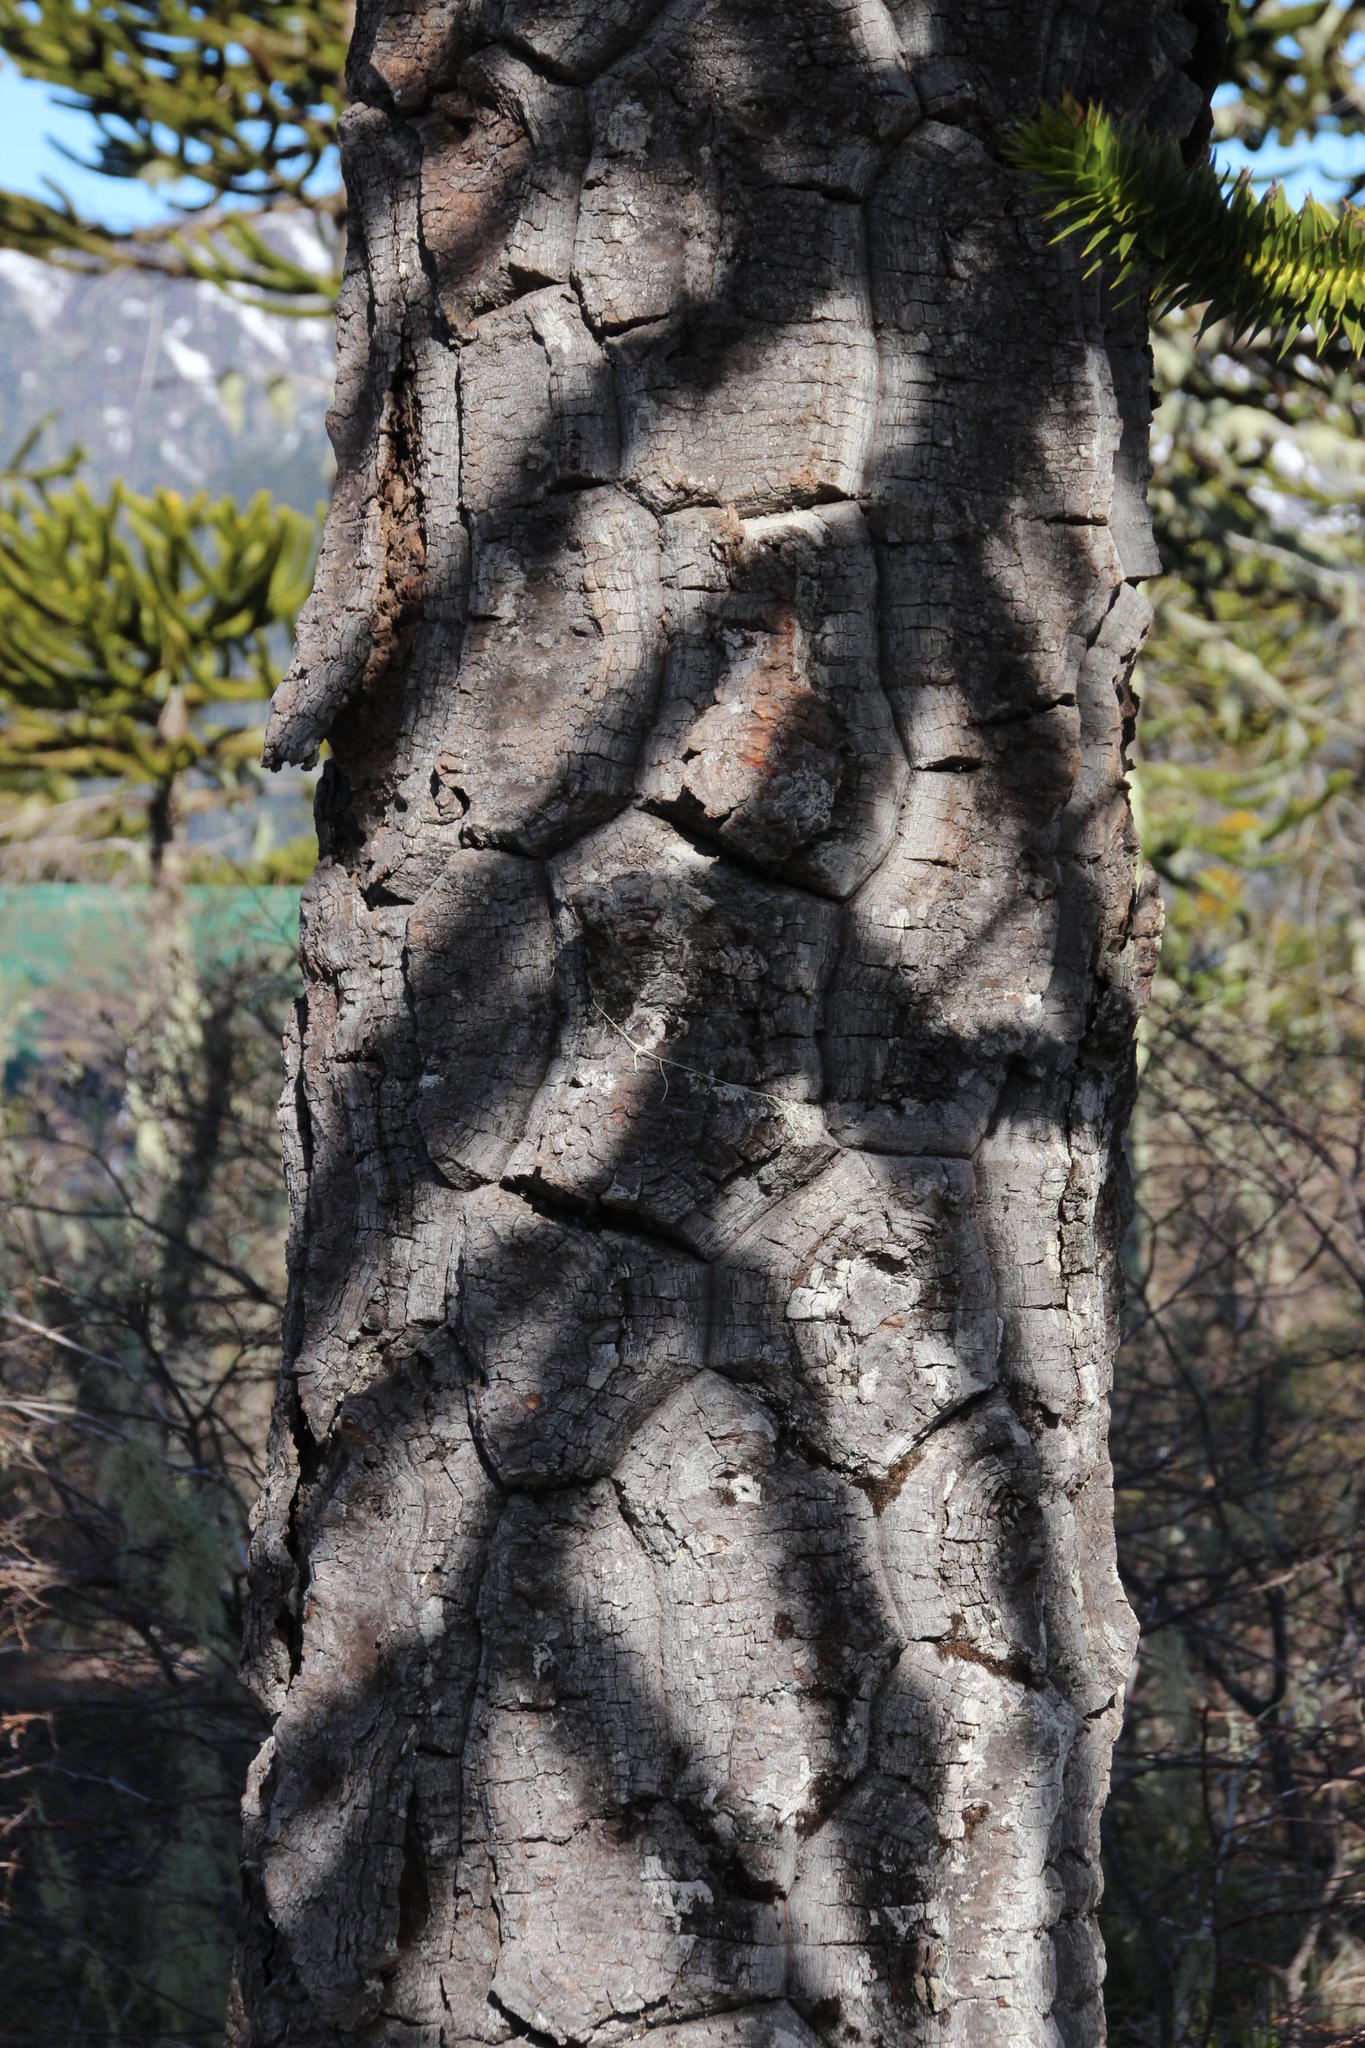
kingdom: Plantae
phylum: Tracheophyta
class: Pinopsida
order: Pinales
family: Araucariaceae
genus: Araucaria
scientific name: Araucaria araucana
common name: Monkey-puzzle
